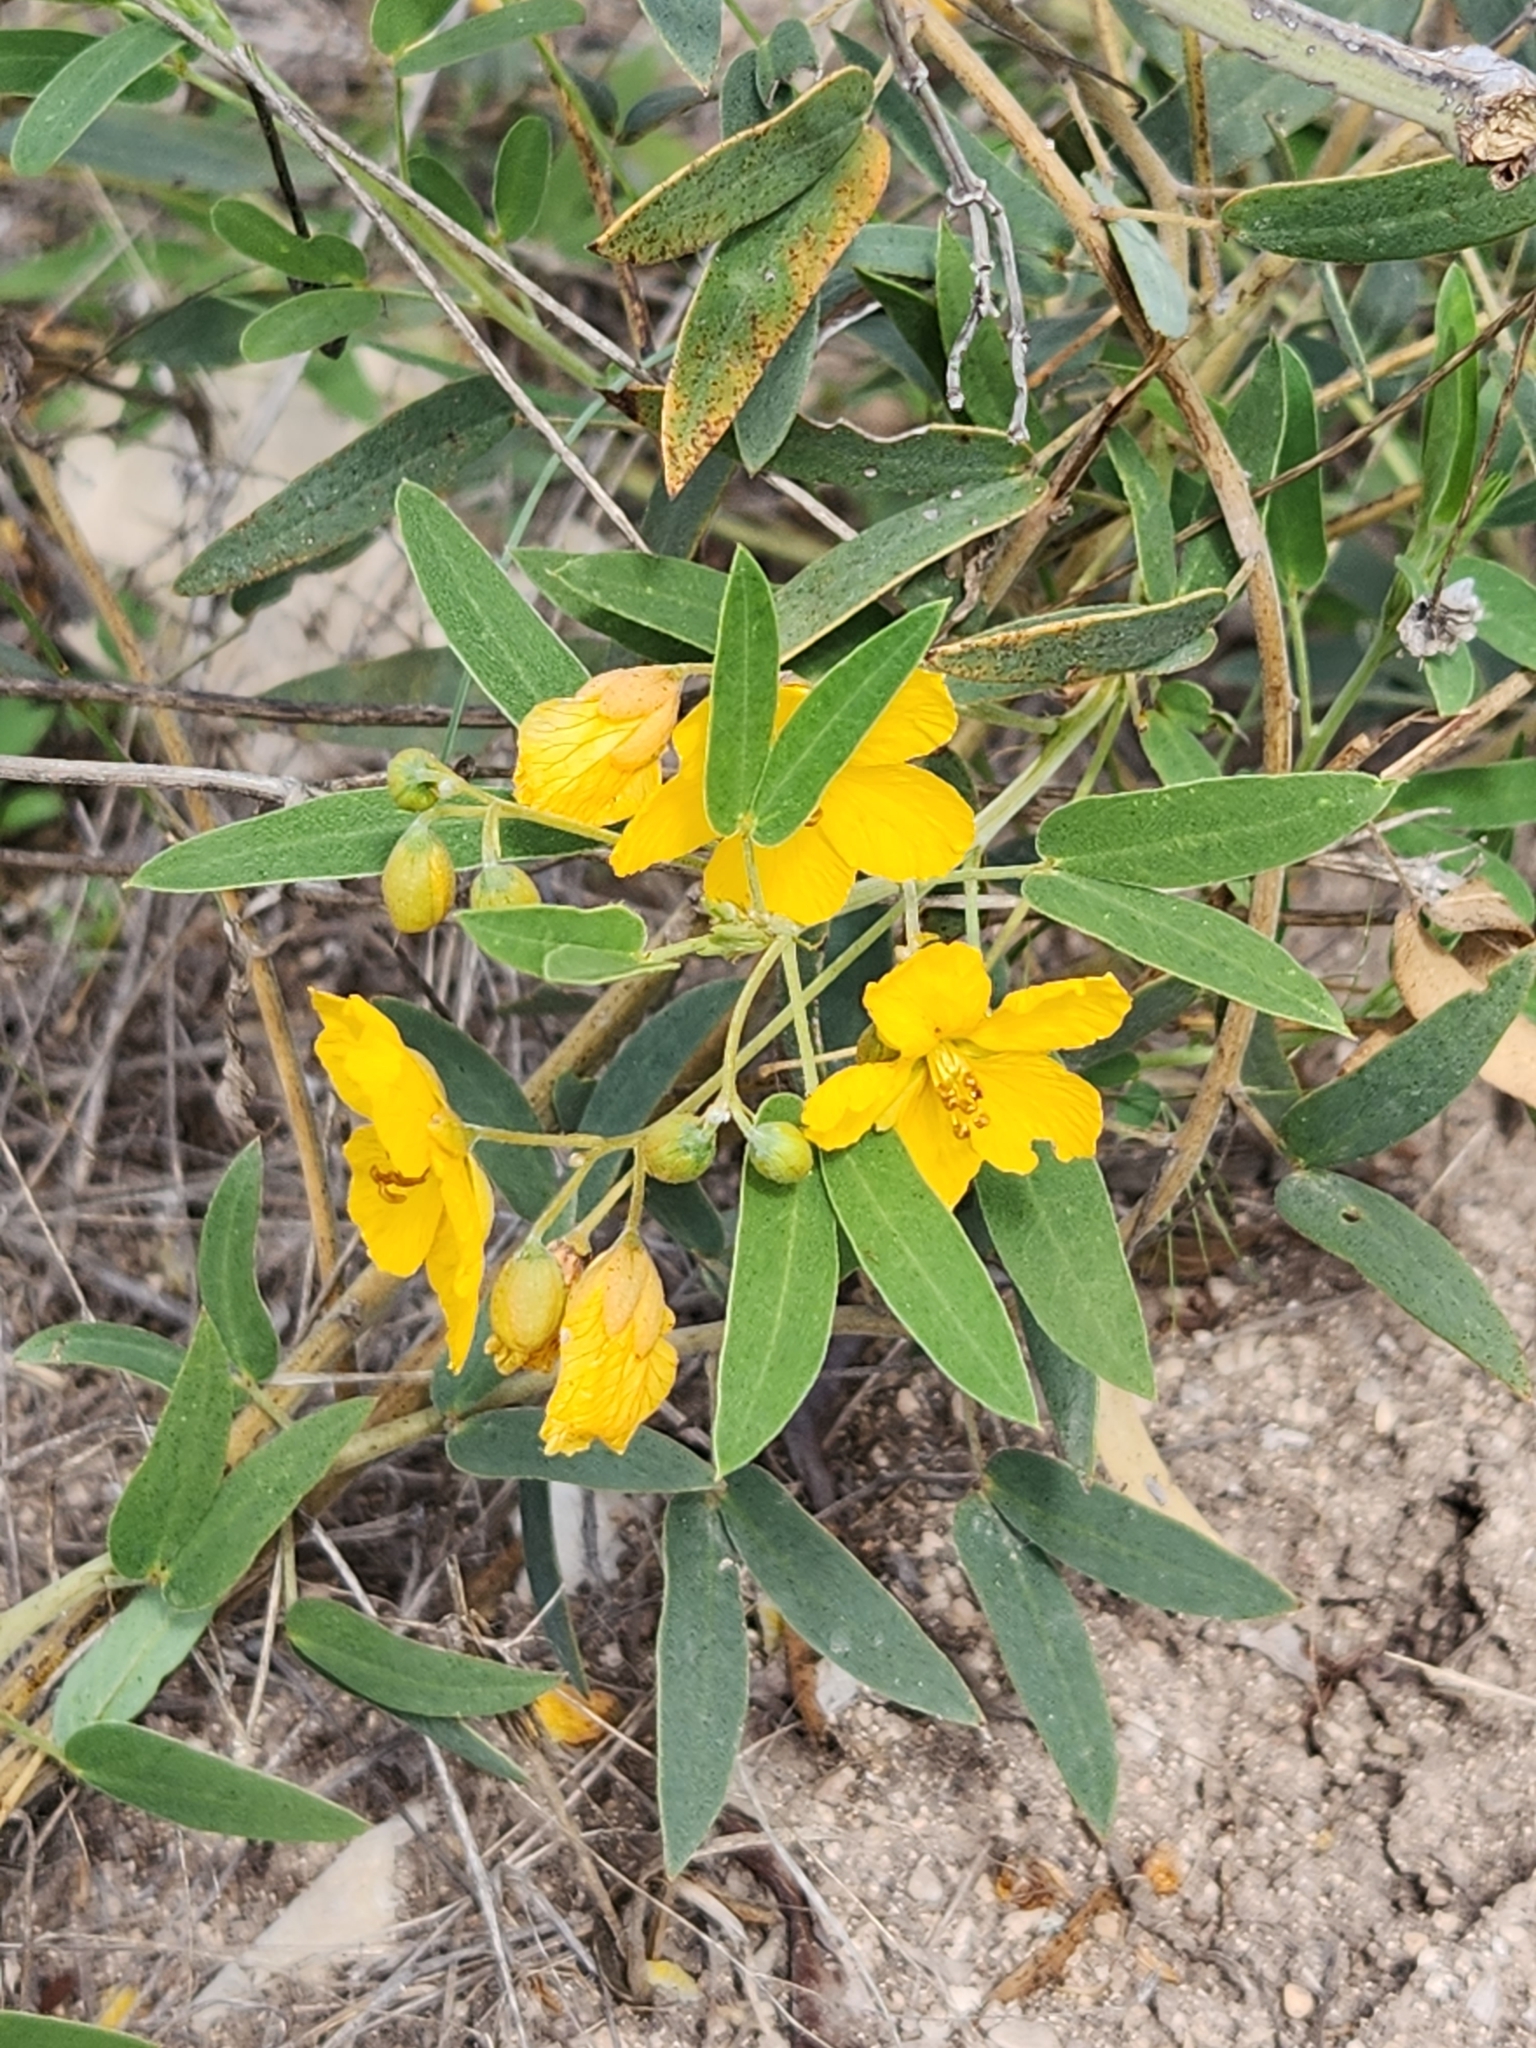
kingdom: Plantae
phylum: Tracheophyta
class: Magnoliopsida
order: Fabales
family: Fabaceae
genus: Senna
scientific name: Senna roemeriana
